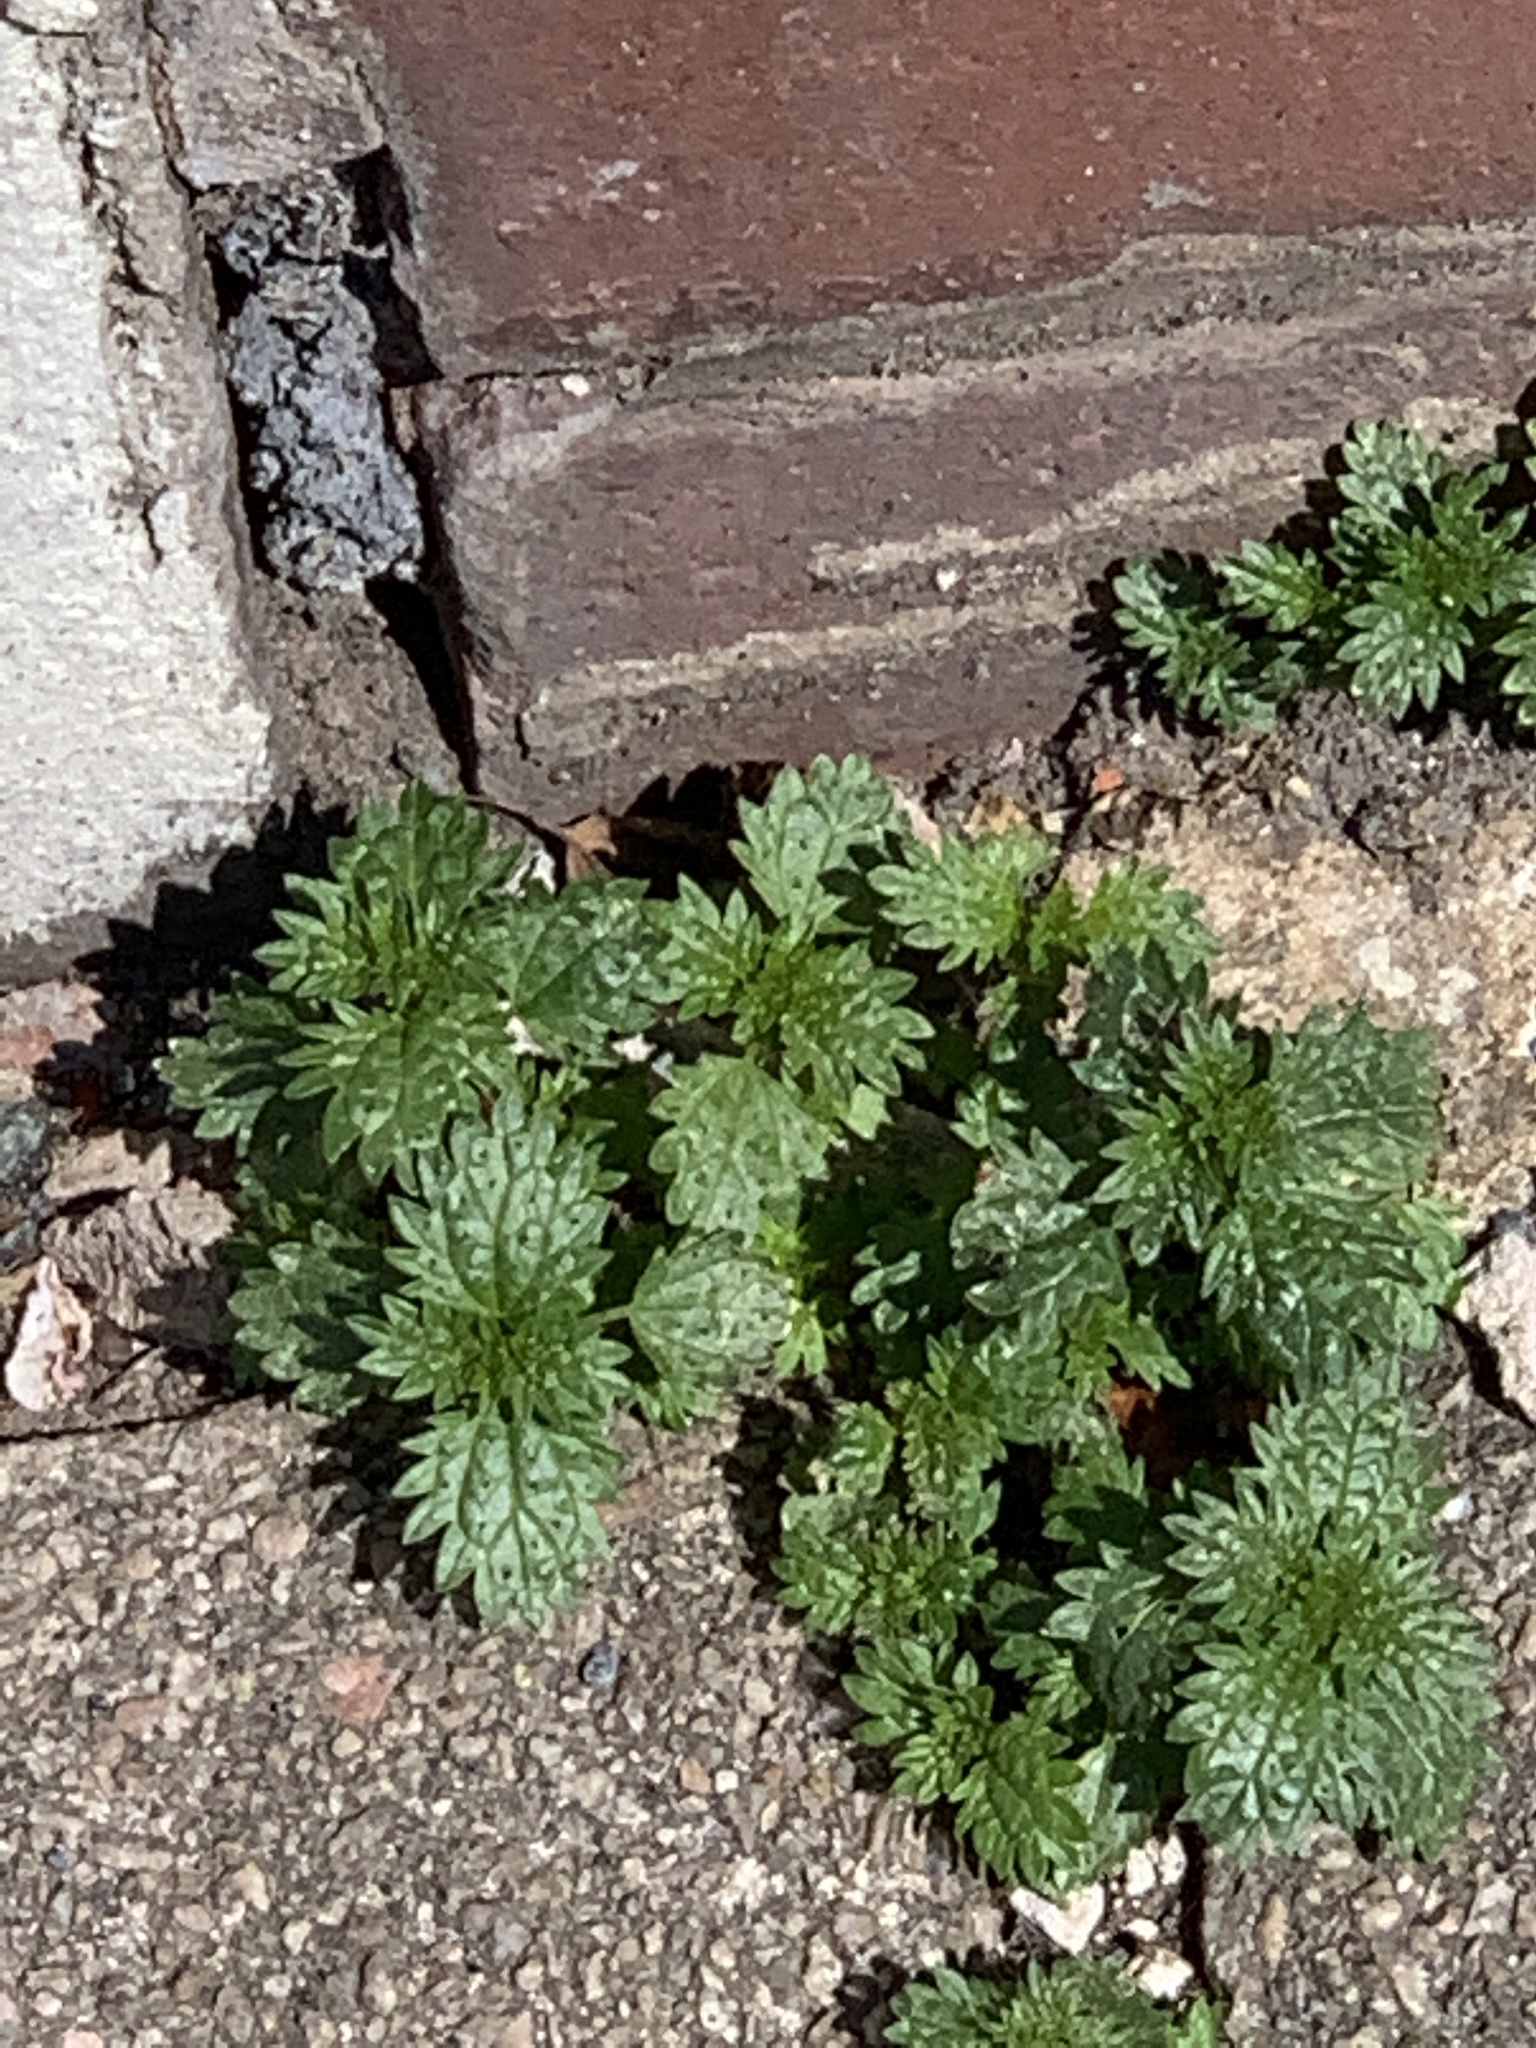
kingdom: Plantae
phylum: Tracheophyta
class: Magnoliopsida
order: Rosales
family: Urticaceae
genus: Urtica
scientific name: Urtica urens
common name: Dwarf nettle
